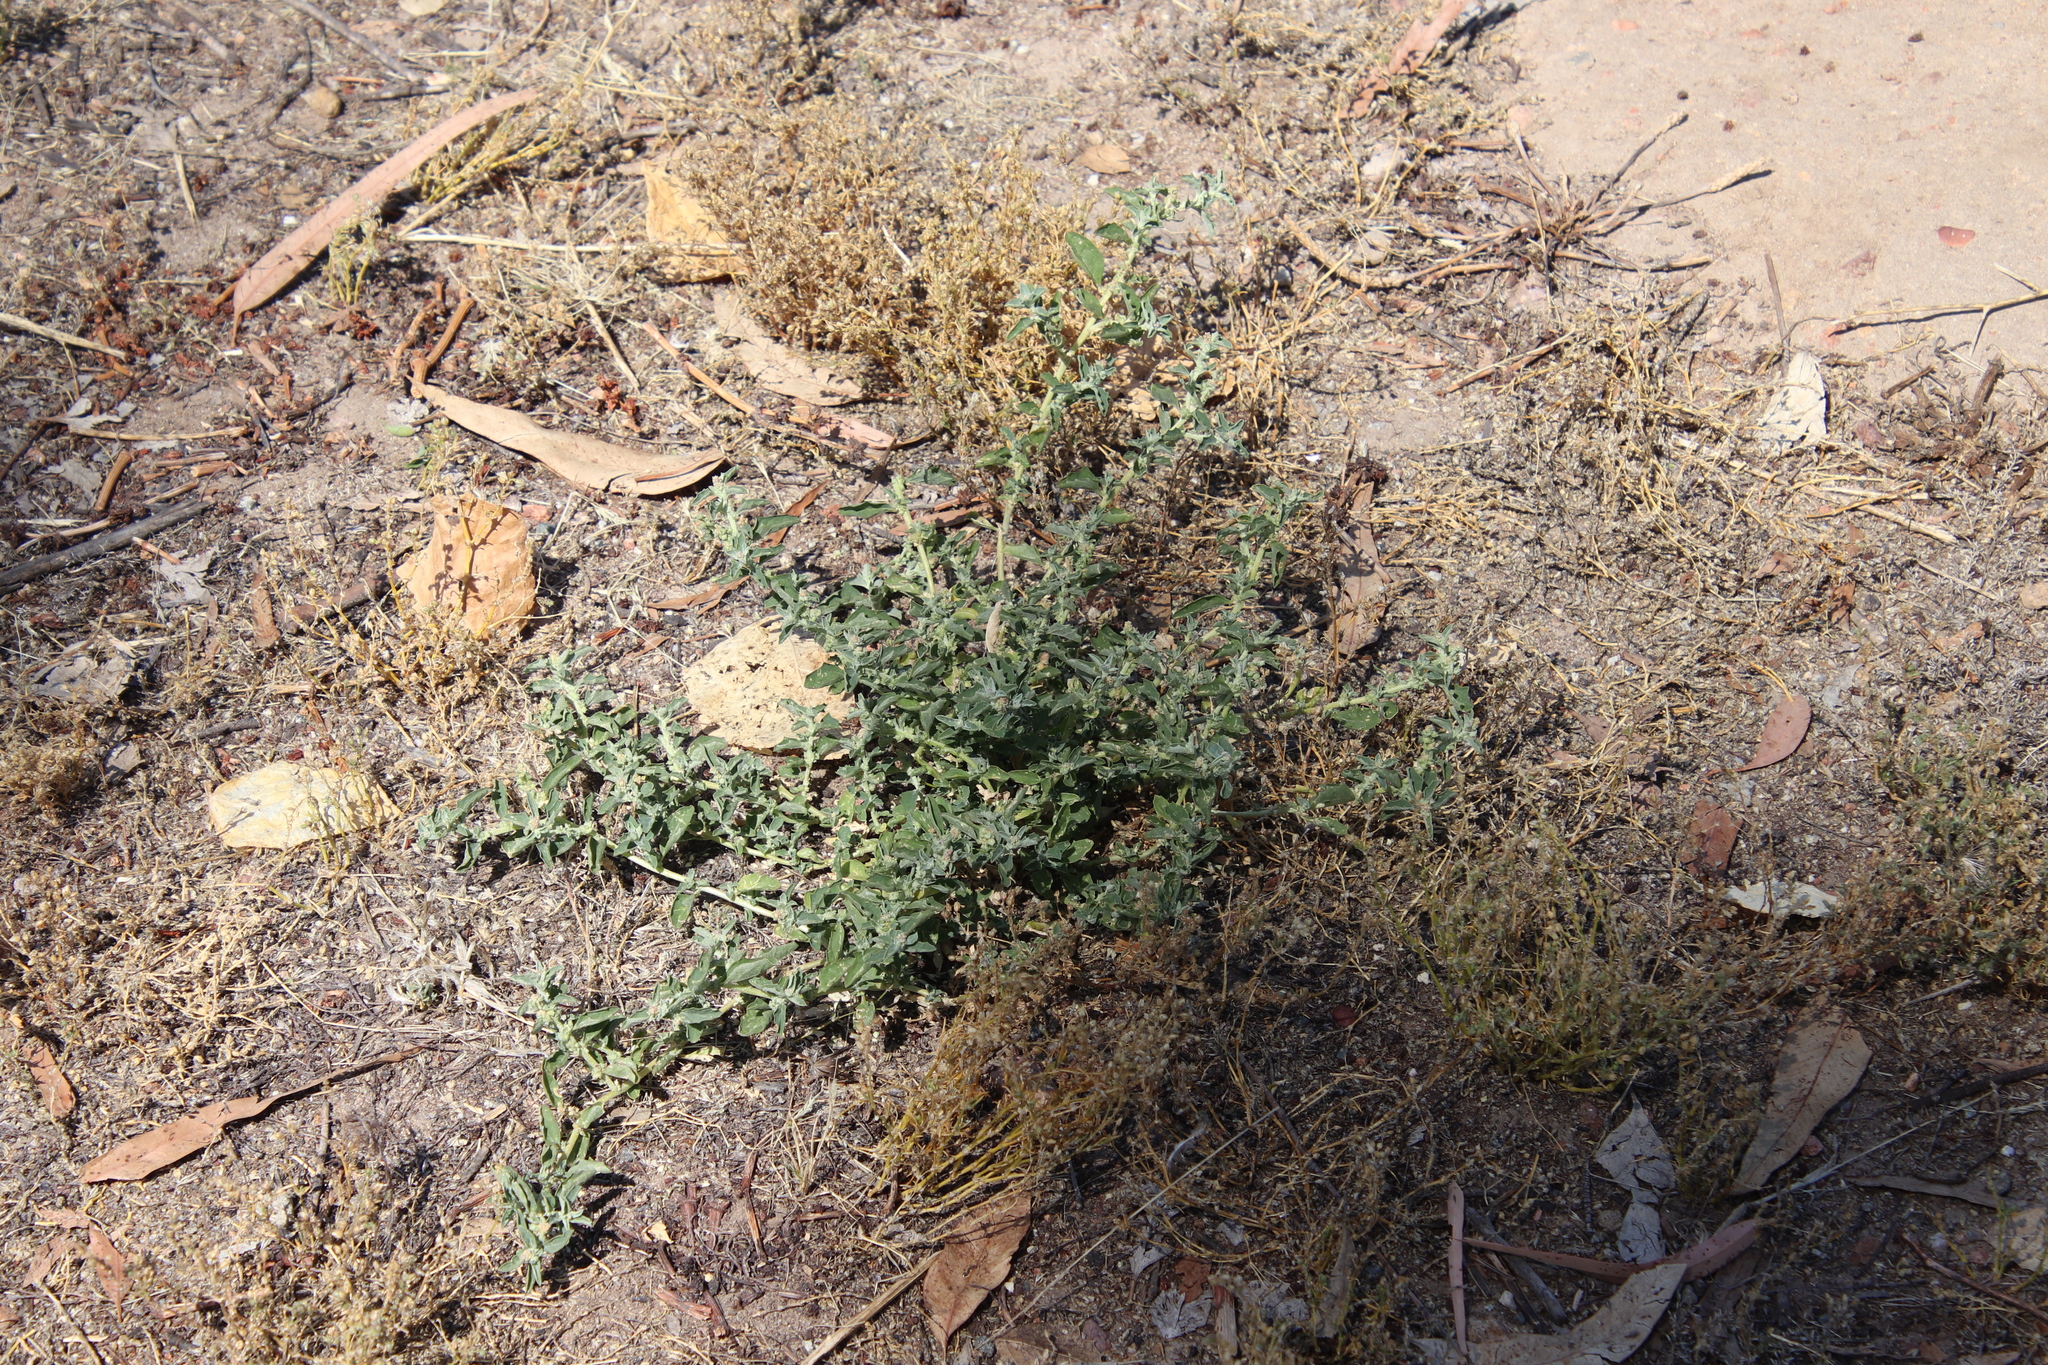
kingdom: Plantae
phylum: Tracheophyta
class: Magnoliopsida
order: Caryophyllales
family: Amaranthaceae
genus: Atriplex
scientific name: Atriplex suberecta
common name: Australian orache
